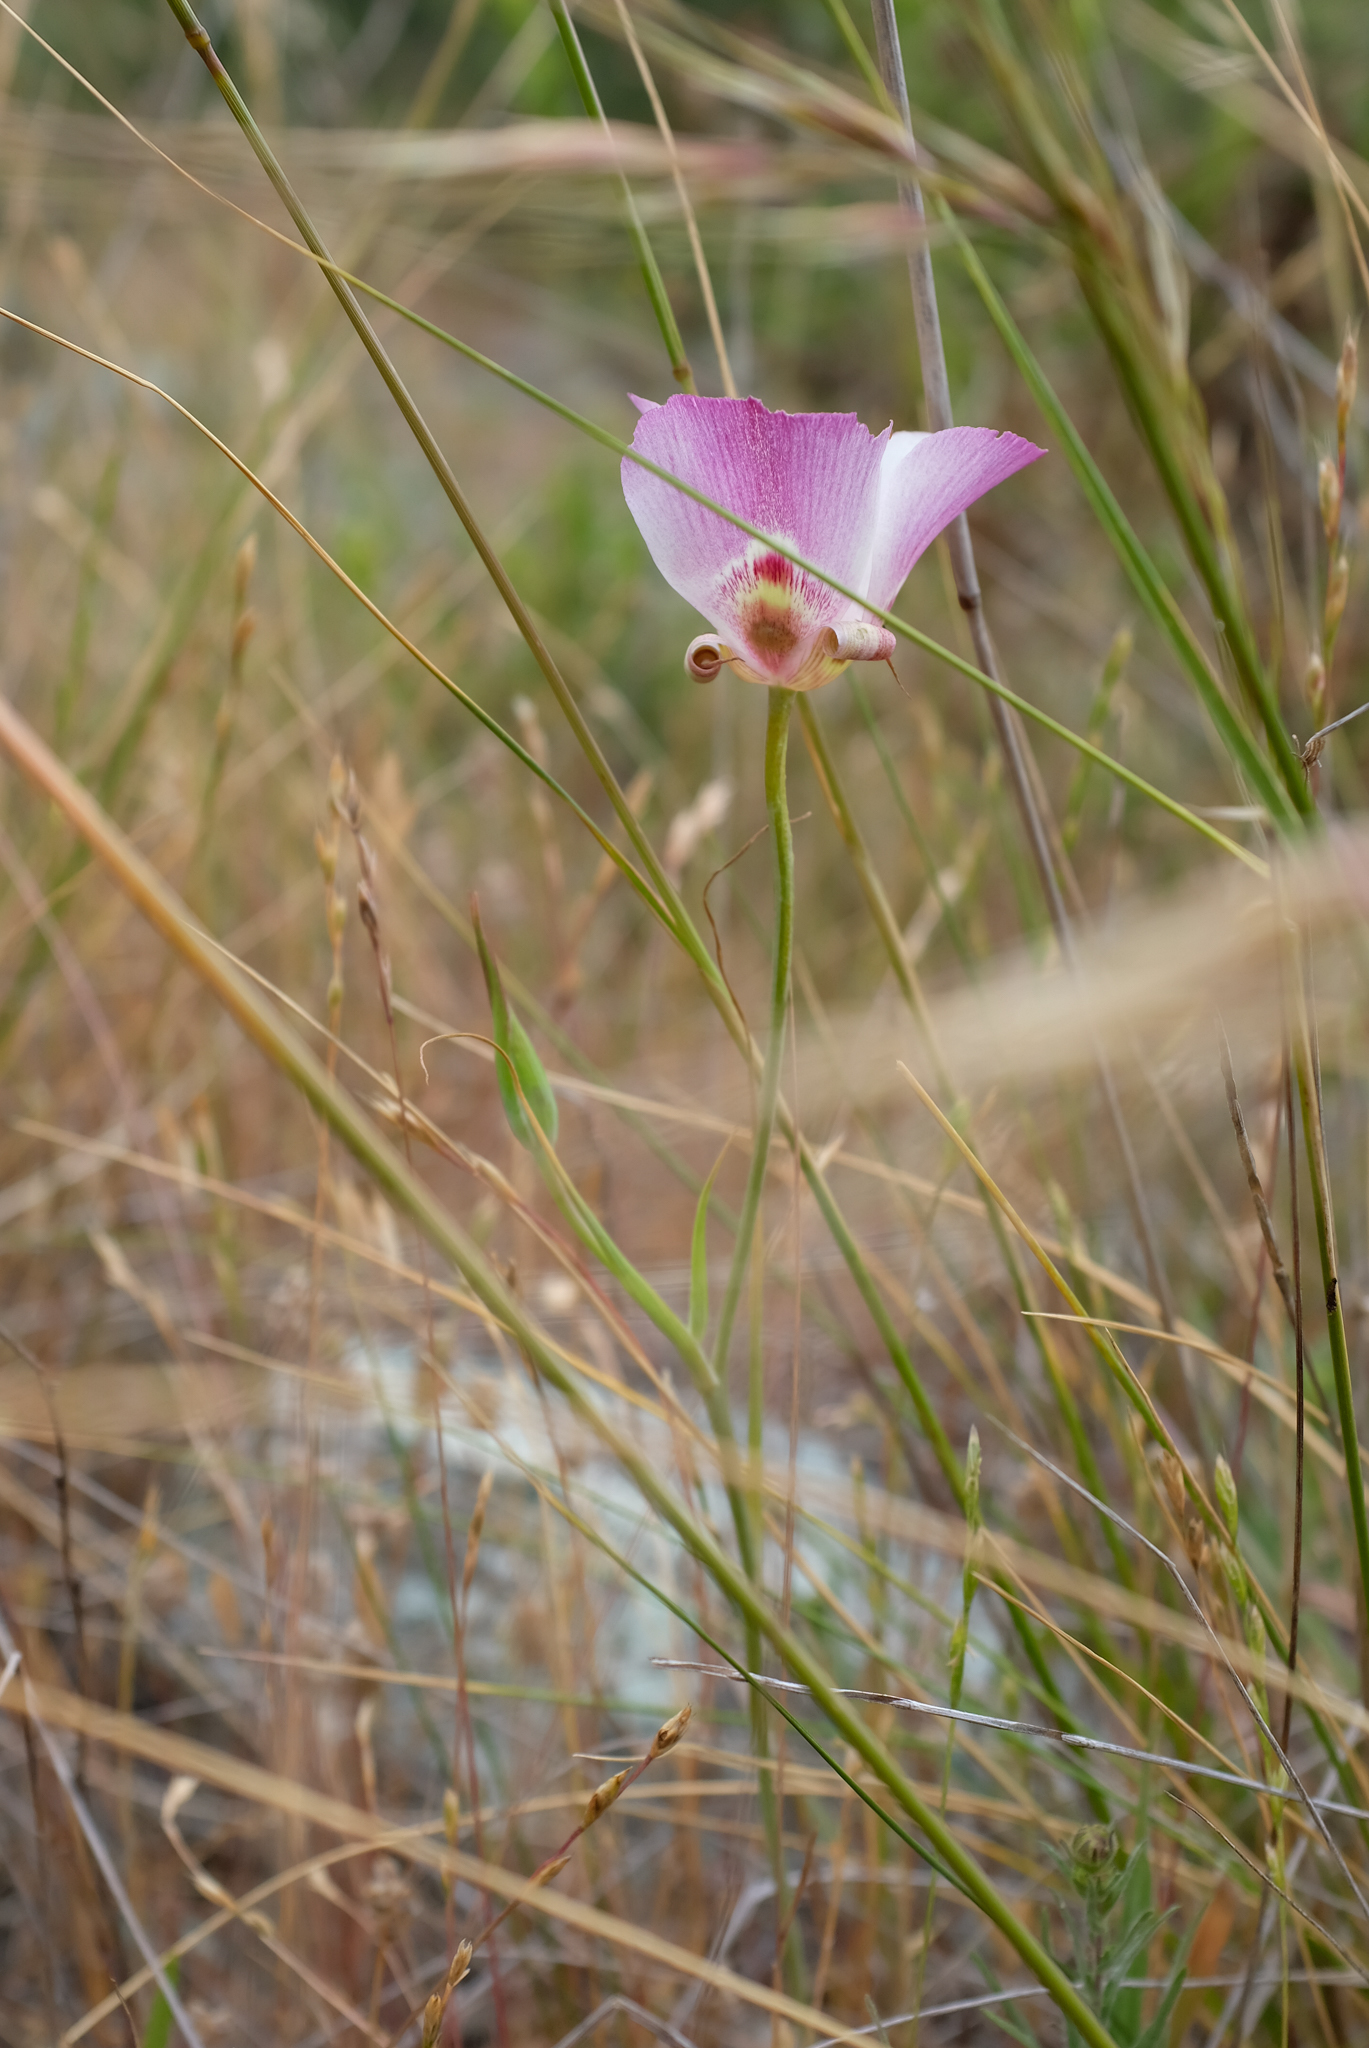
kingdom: Plantae
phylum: Tracheophyta
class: Liliopsida
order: Liliales
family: Liliaceae
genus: Calochortus
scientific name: Calochortus argillosus
